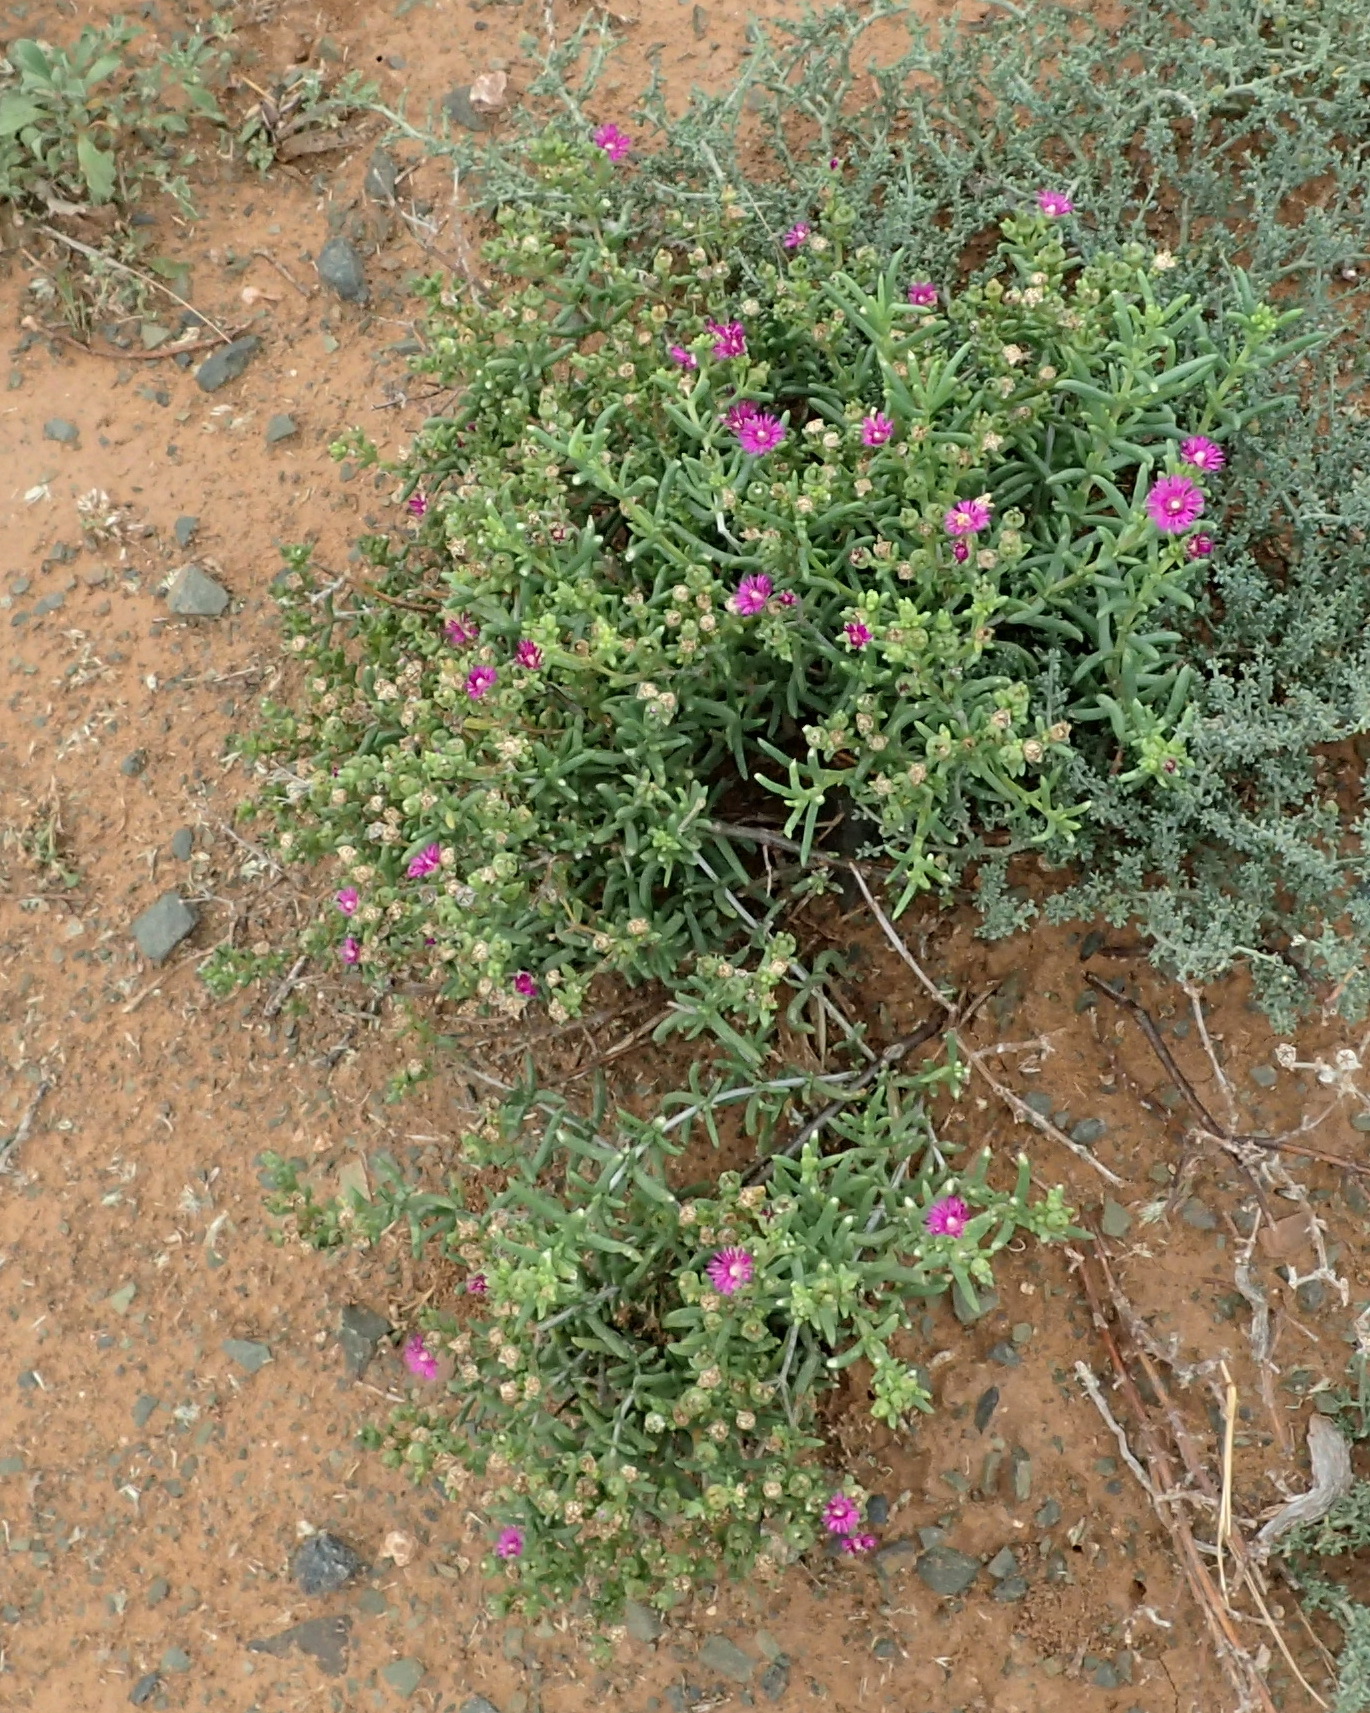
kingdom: Plantae
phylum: Tracheophyta
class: Magnoliopsida
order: Caryophyllales
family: Aizoaceae
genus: Delosperma
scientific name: Delosperma ornatulum
